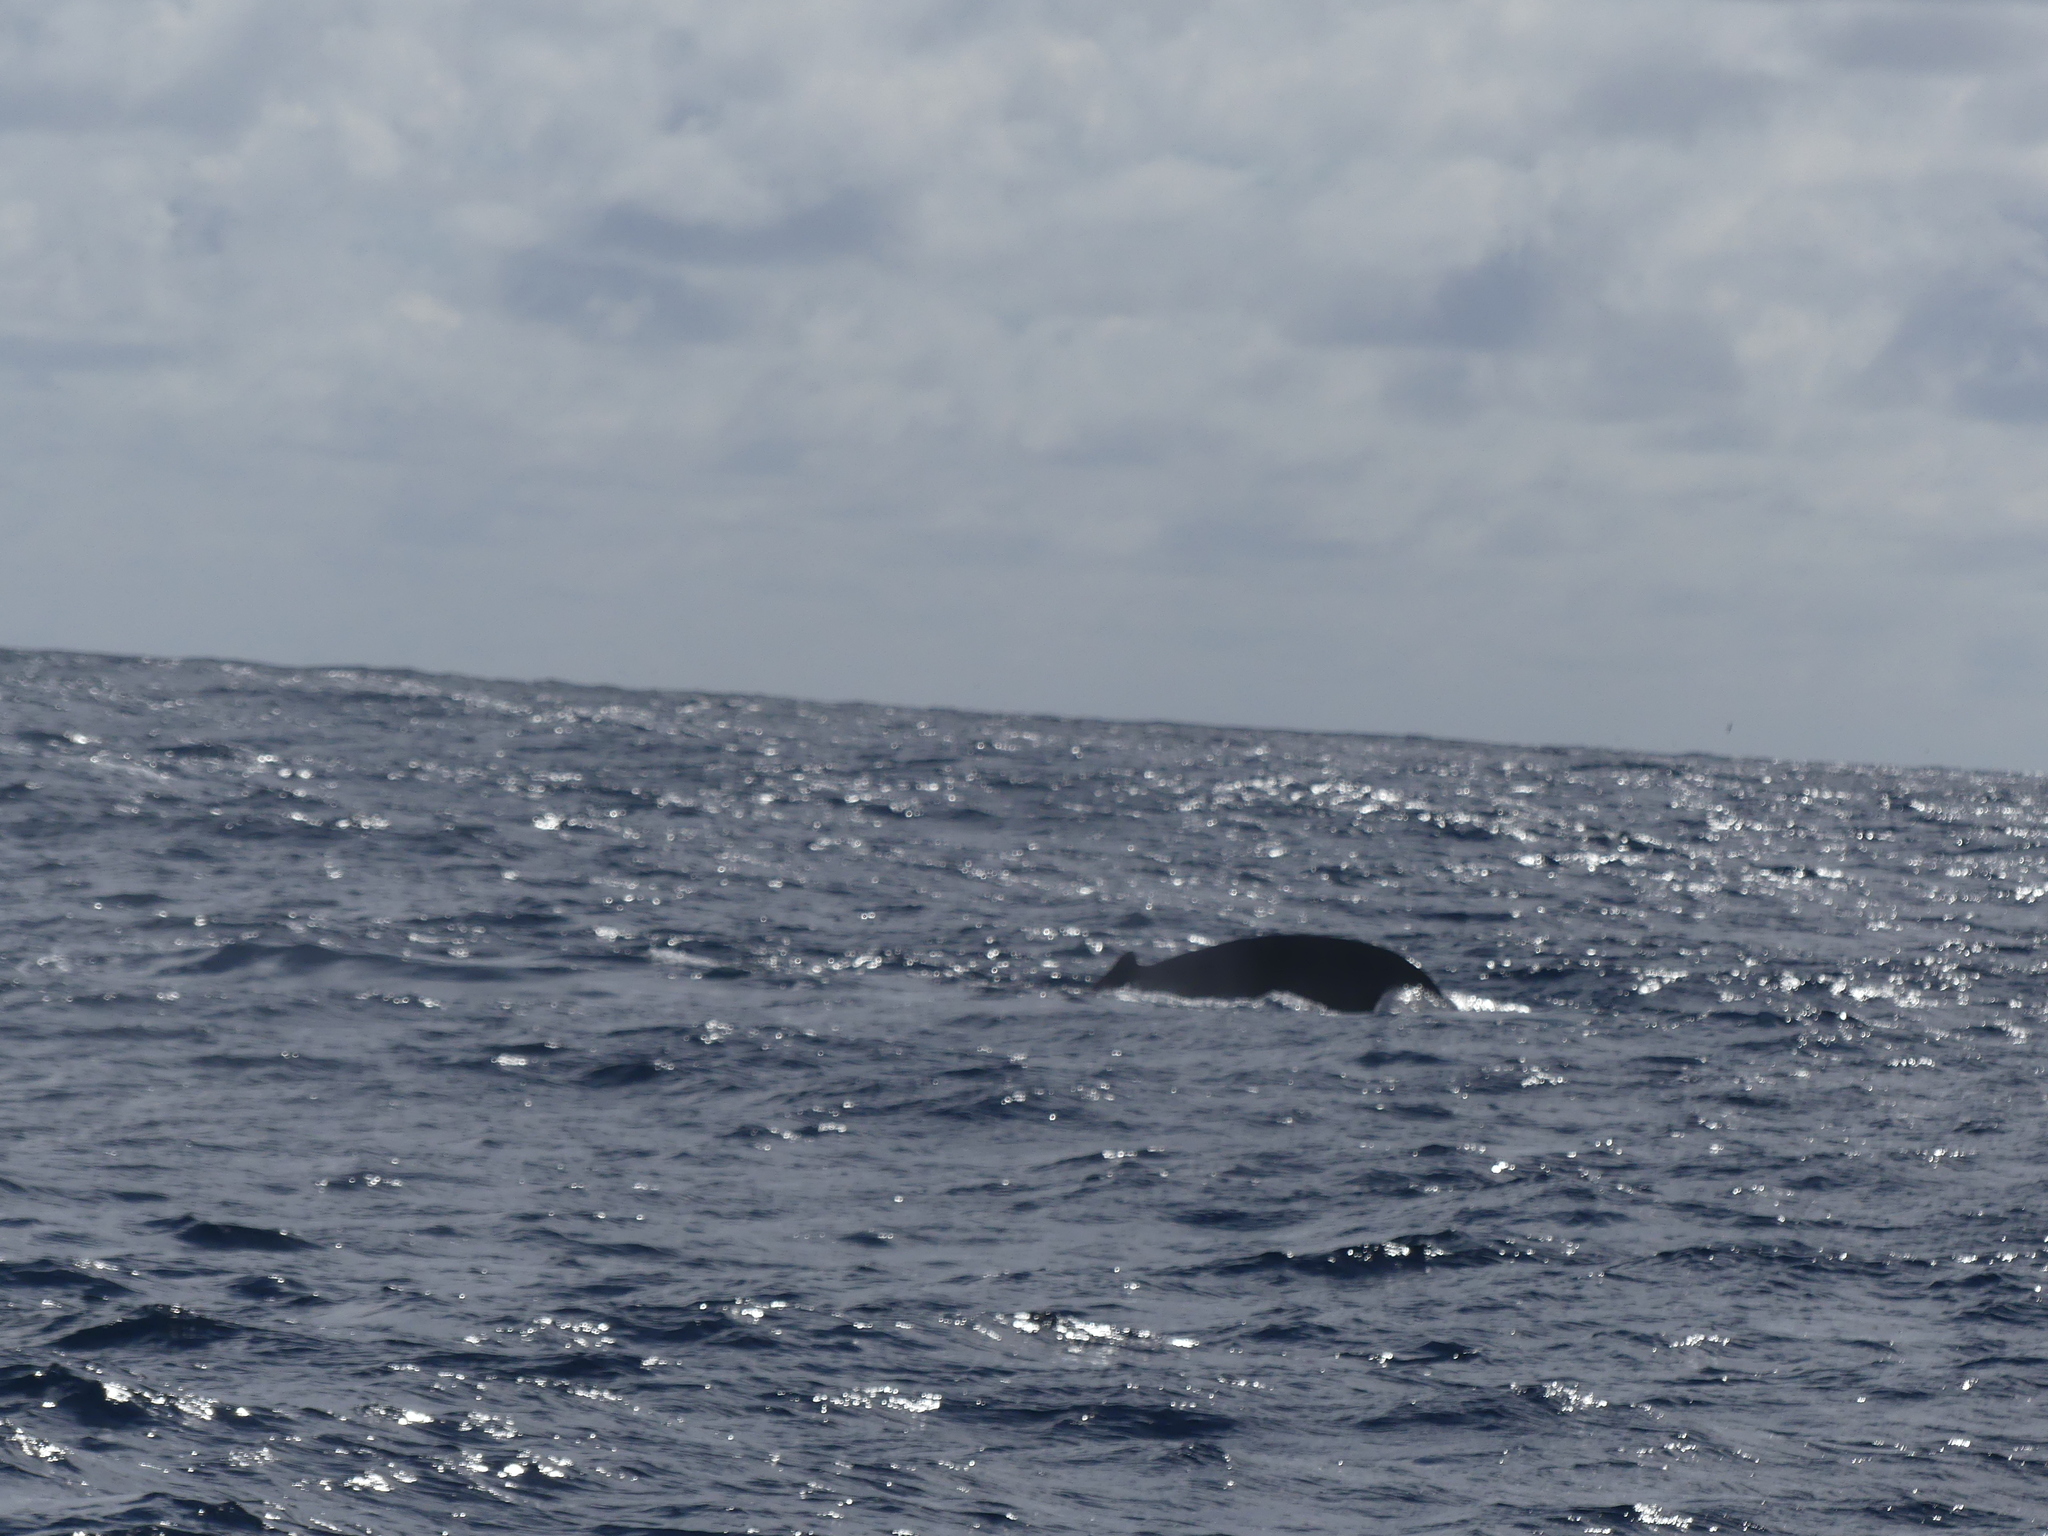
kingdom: Animalia
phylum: Chordata
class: Mammalia
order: Cetacea
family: Balaenopteridae
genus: Megaptera
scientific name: Megaptera novaeangliae
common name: Humpback whale
